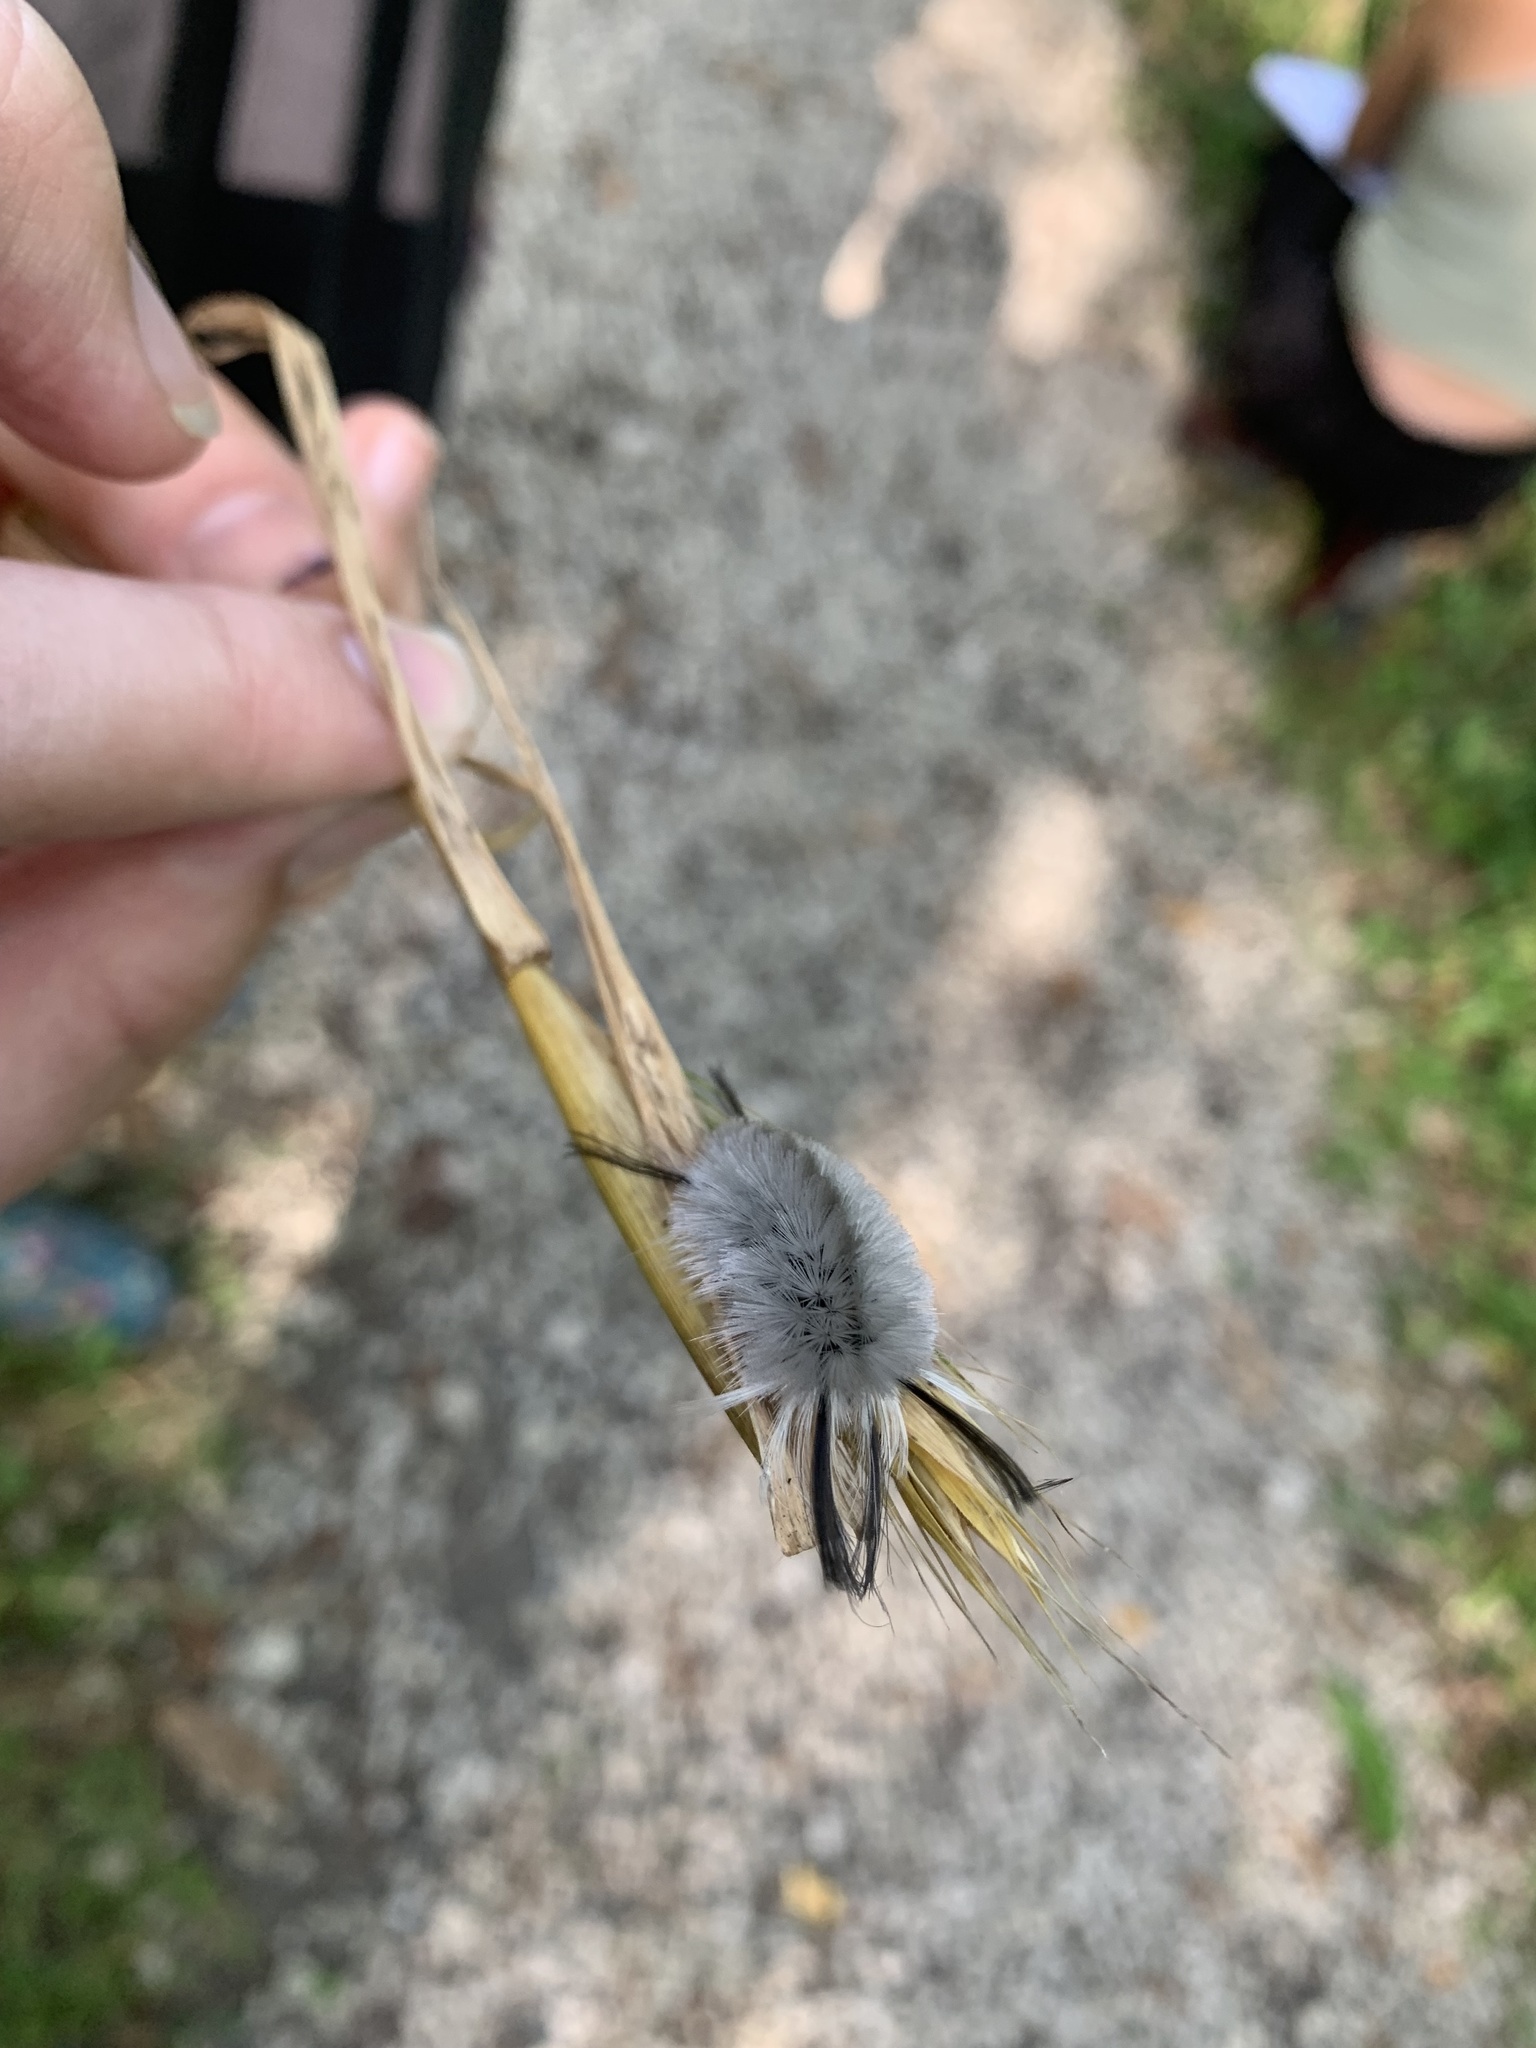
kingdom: Animalia
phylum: Arthropoda
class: Insecta
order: Lepidoptera
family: Erebidae
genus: Halysidota
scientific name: Halysidota tessellaris
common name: Banded tussock moth
